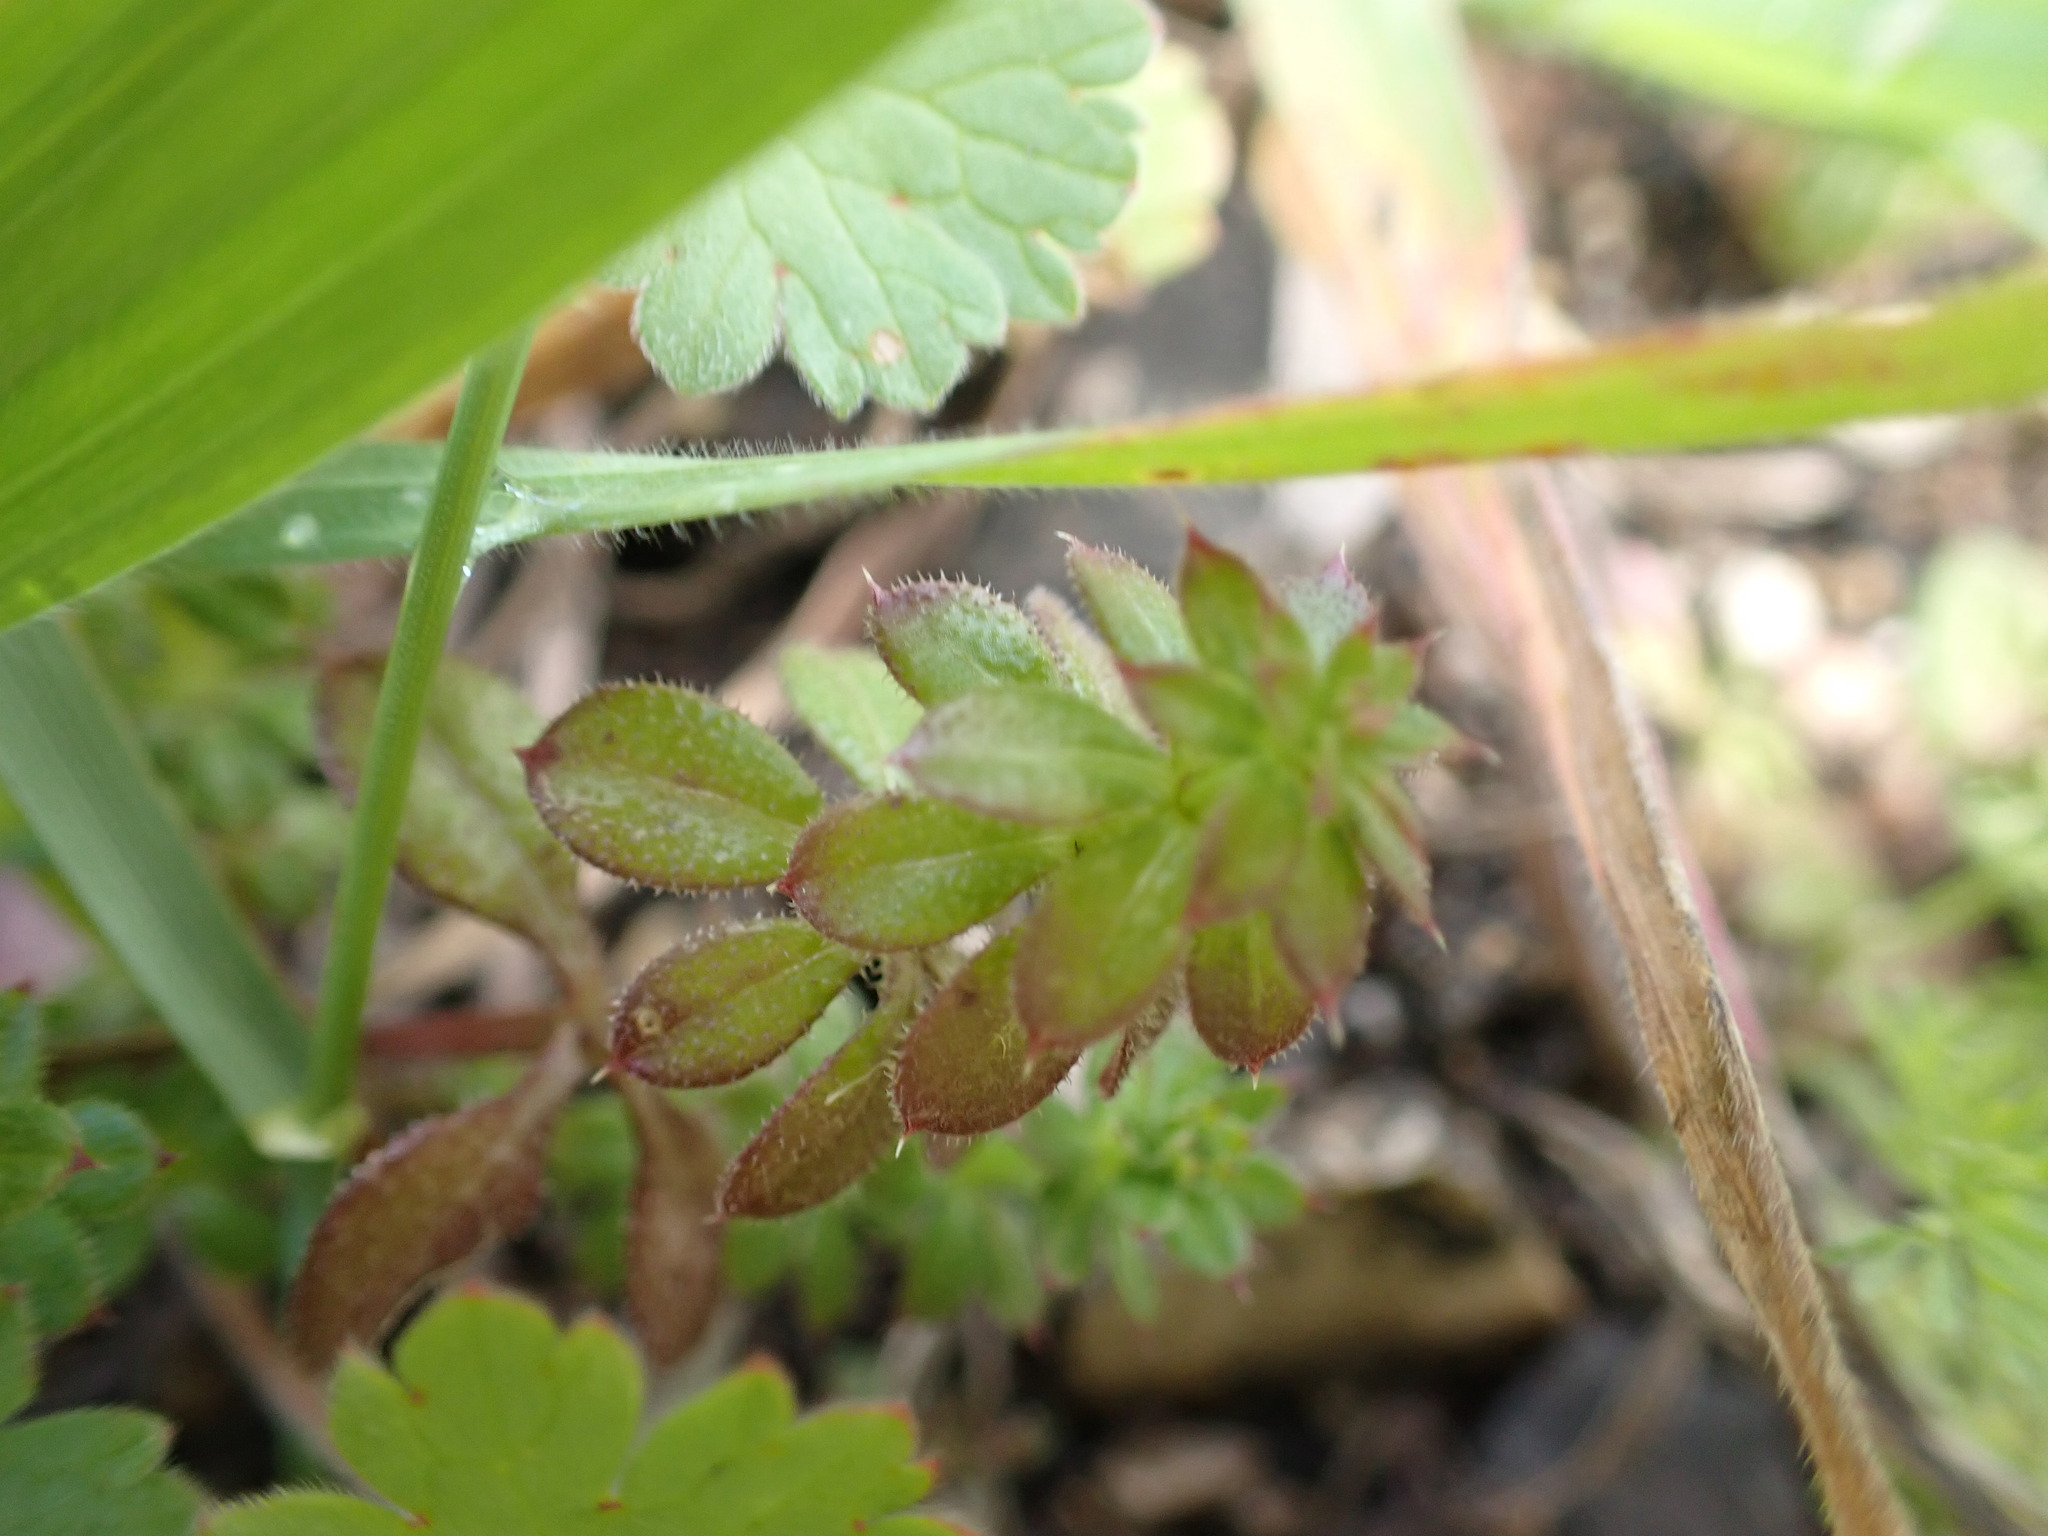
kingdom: Plantae
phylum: Tracheophyta
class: Magnoliopsida
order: Gentianales
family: Rubiaceae
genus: Sherardia
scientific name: Sherardia arvensis
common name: Field madder
